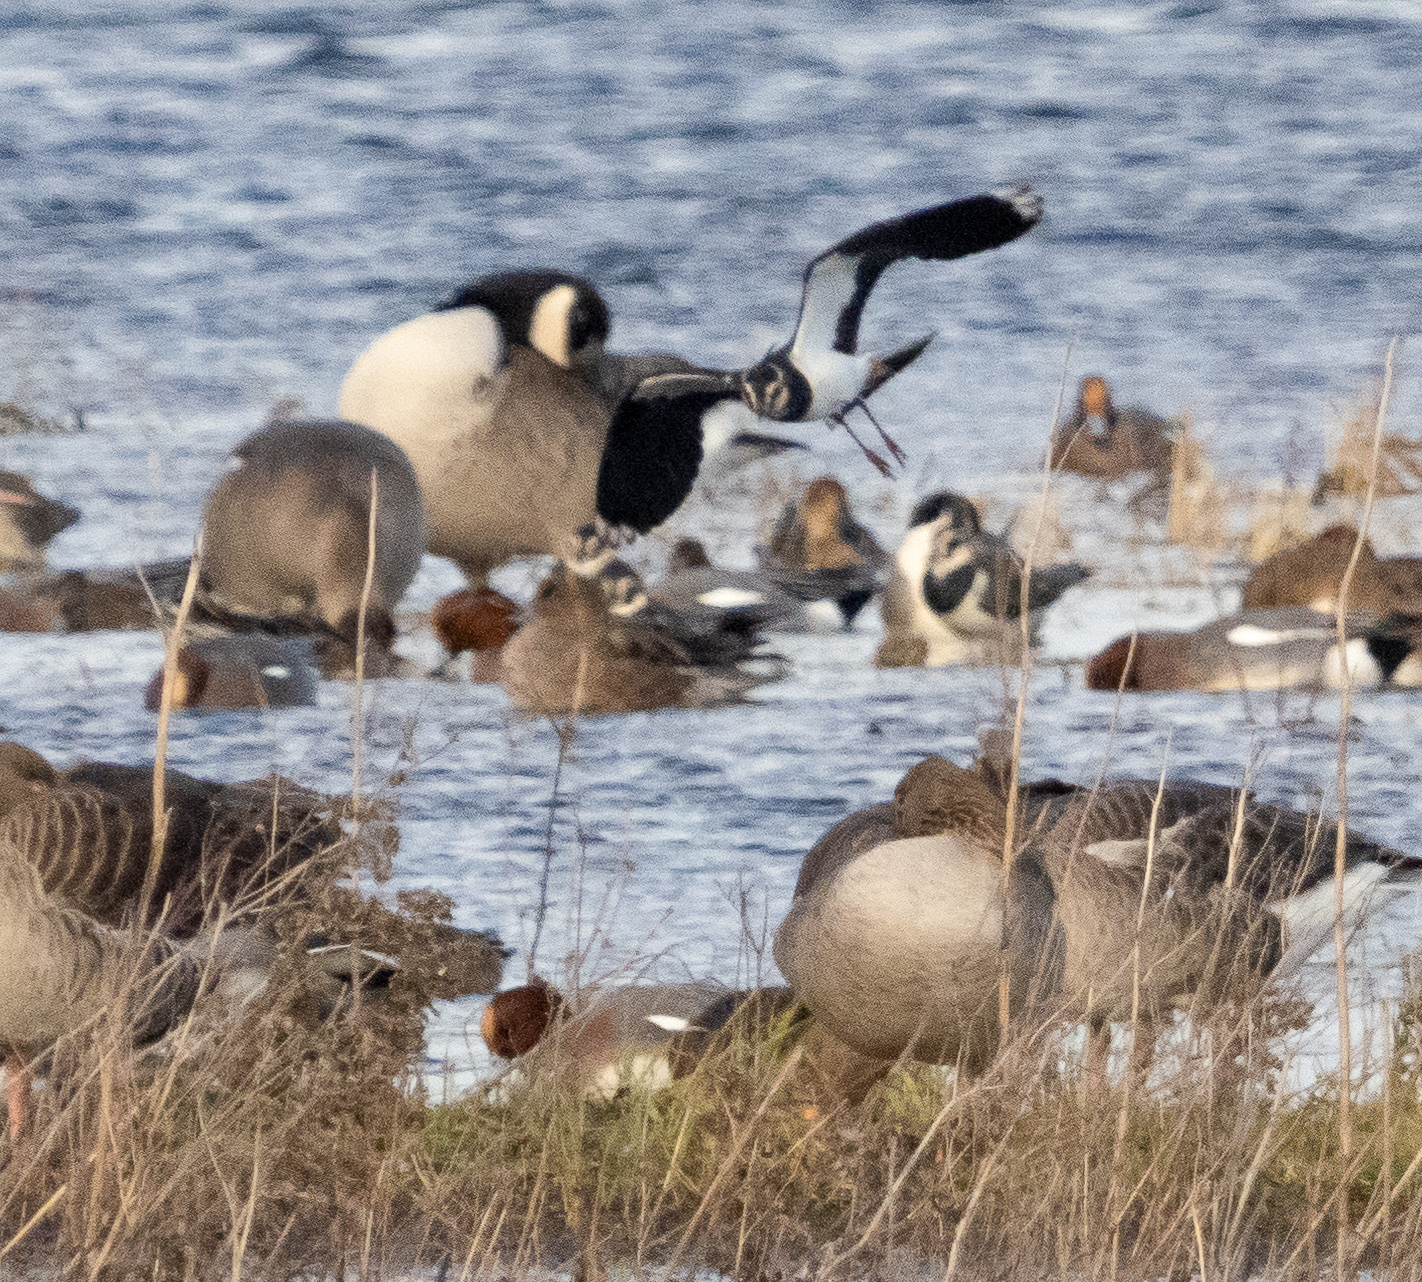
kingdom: Animalia
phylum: Chordata
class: Aves
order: Charadriiformes
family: Charadriidae
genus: Vanellus
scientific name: Vanellus vanellus
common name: Northern lapwing
